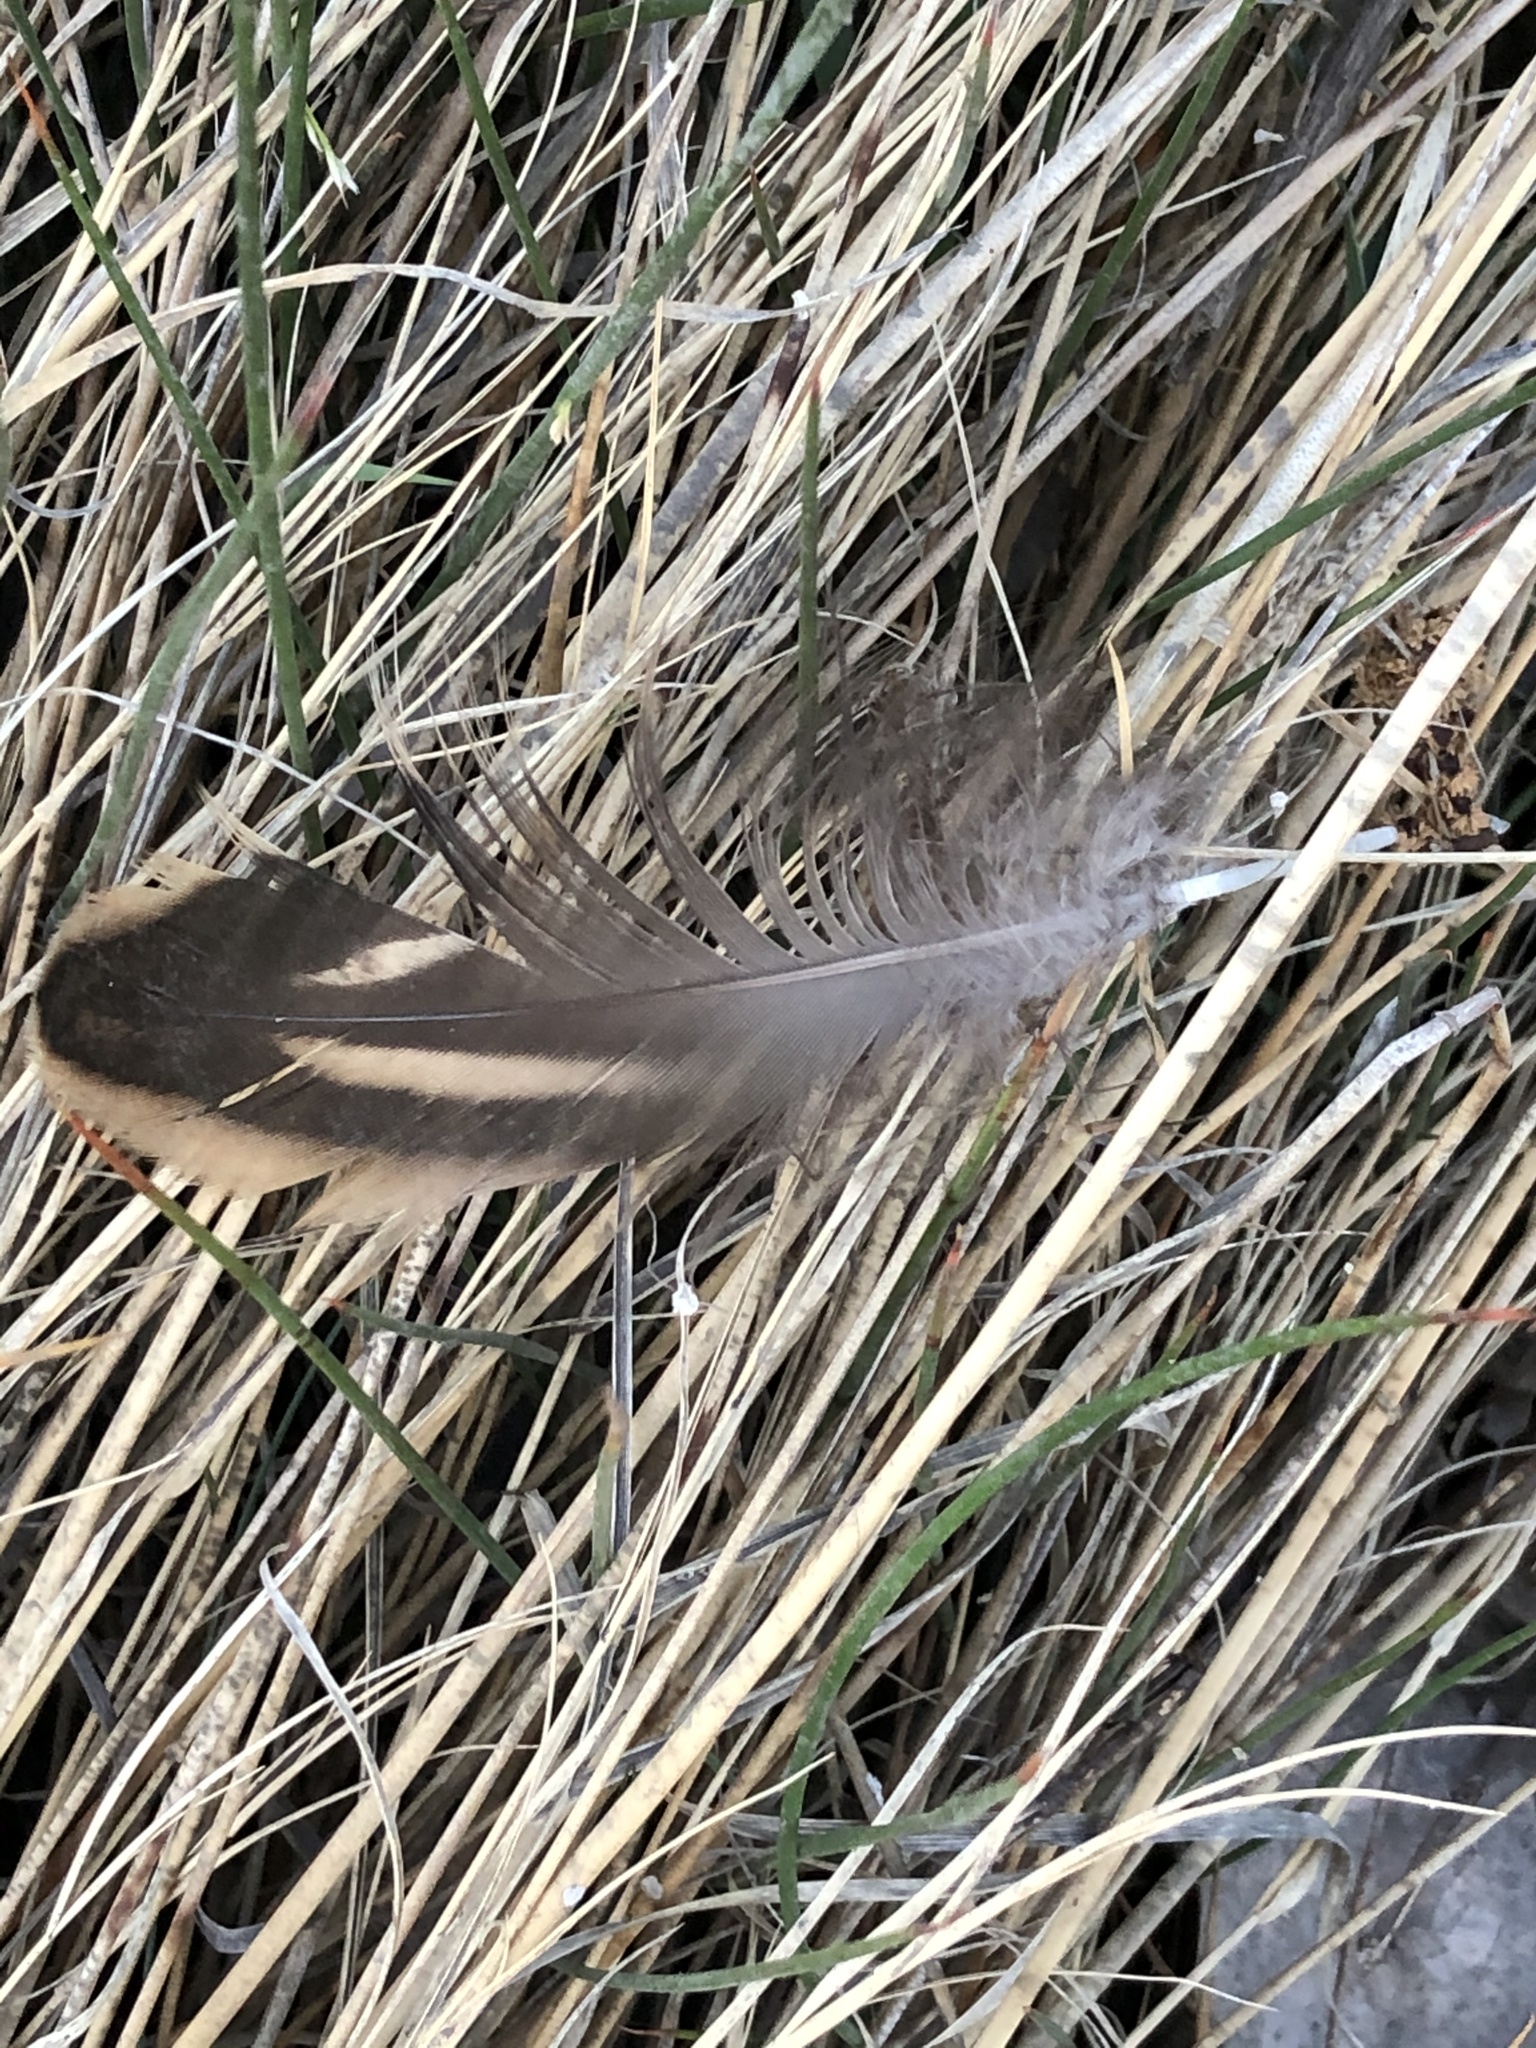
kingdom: Animalia
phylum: Chordata
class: Aves
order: Anseriformes
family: Anatidae
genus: Anas
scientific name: Anas platyrhynchos
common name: Mallard
